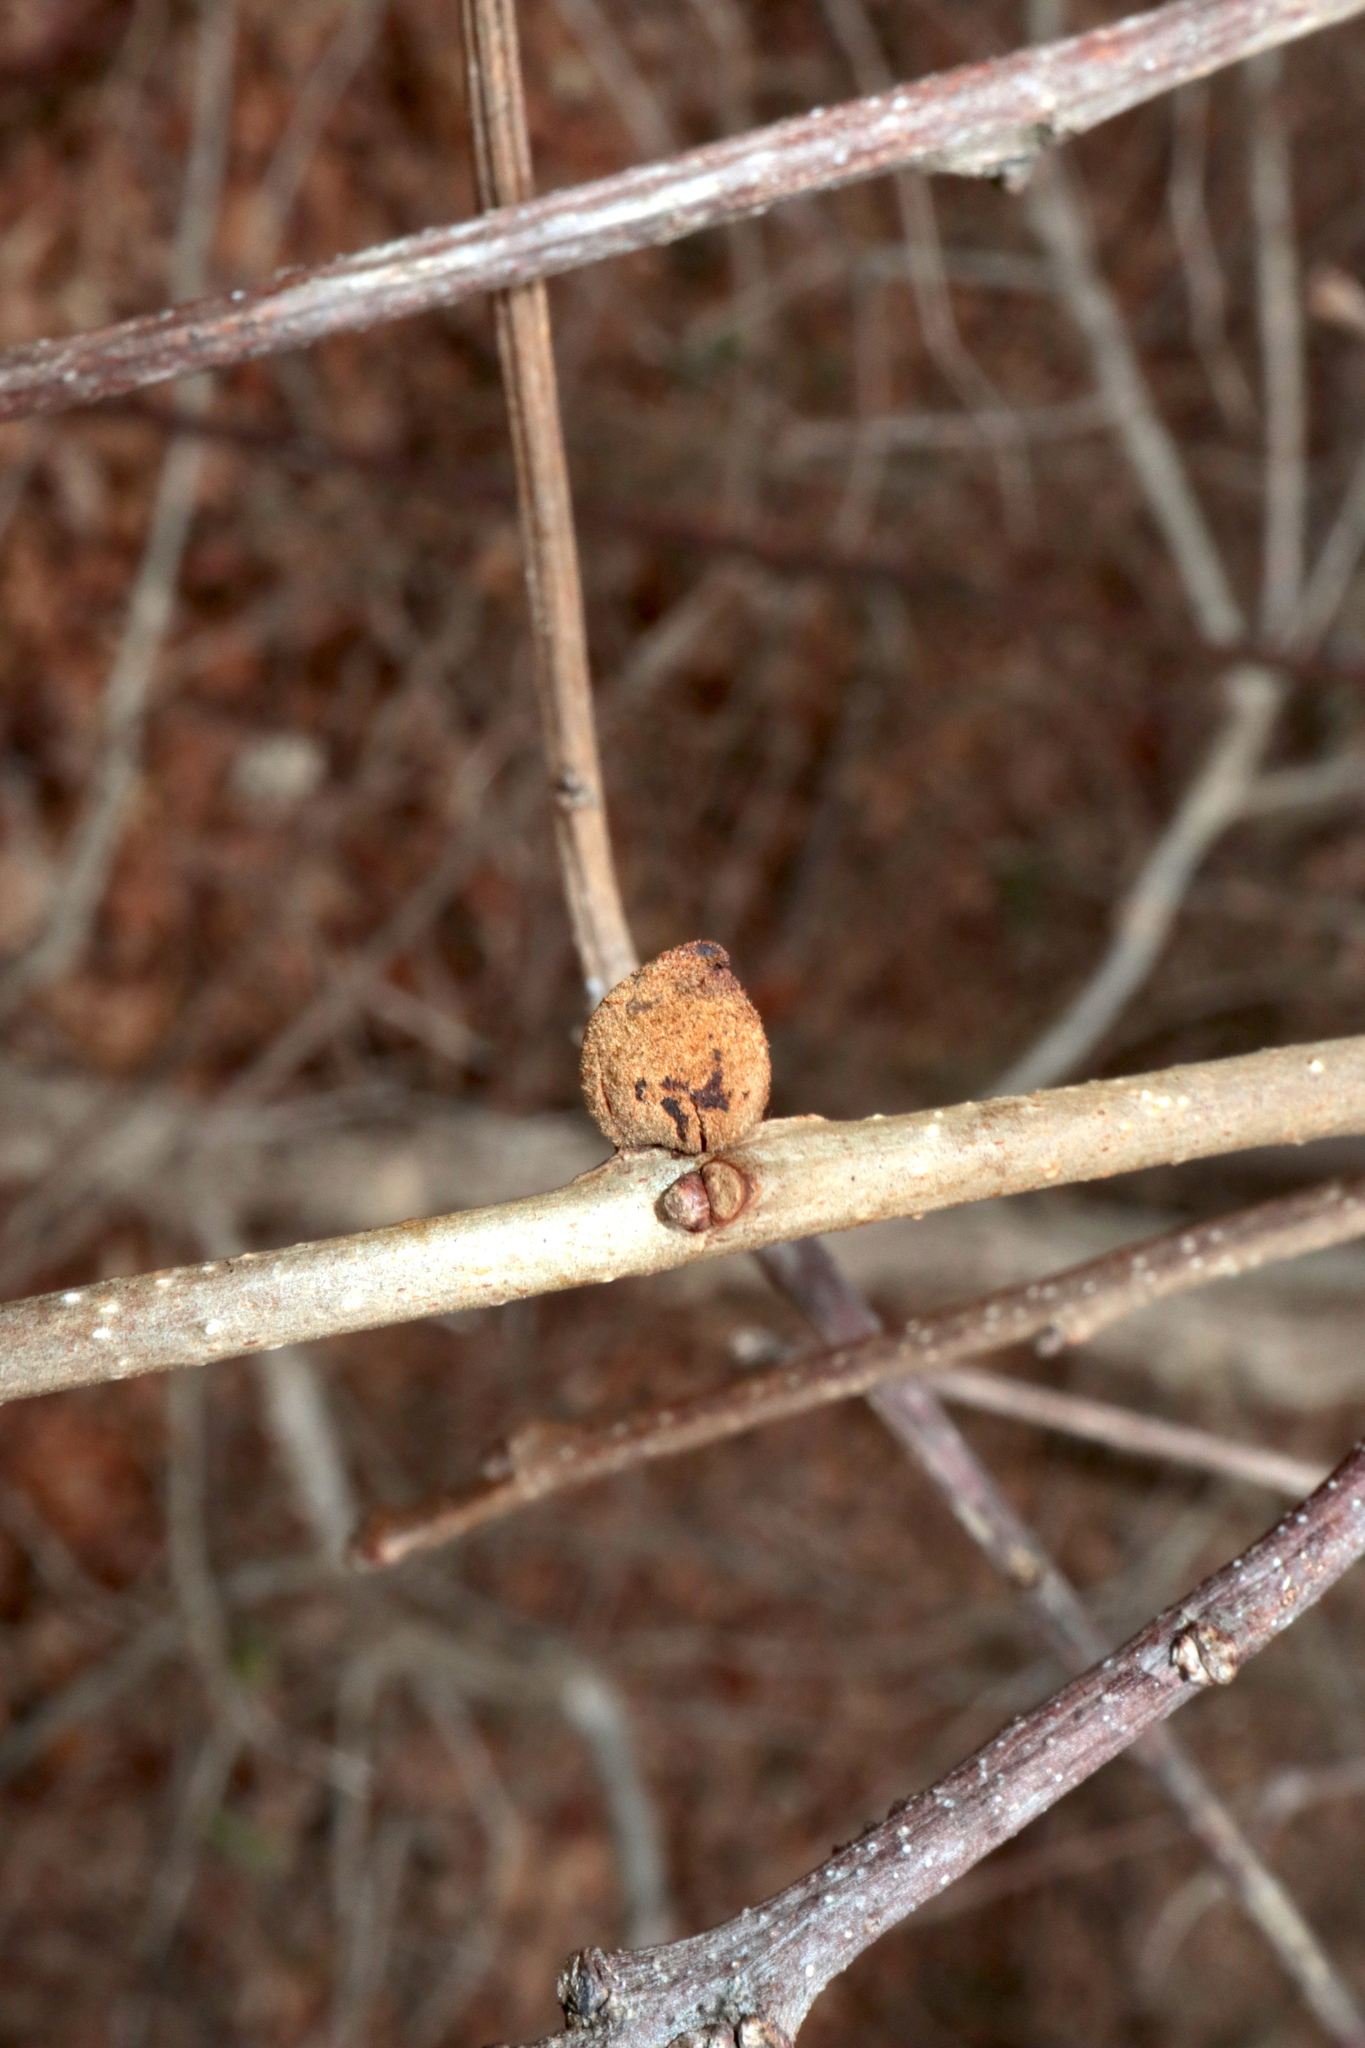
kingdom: Animalia
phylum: Arthropoda
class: Insecta
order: Hymenoptera
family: Cynipidae
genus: Disholcaspis
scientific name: Disholcaspis
